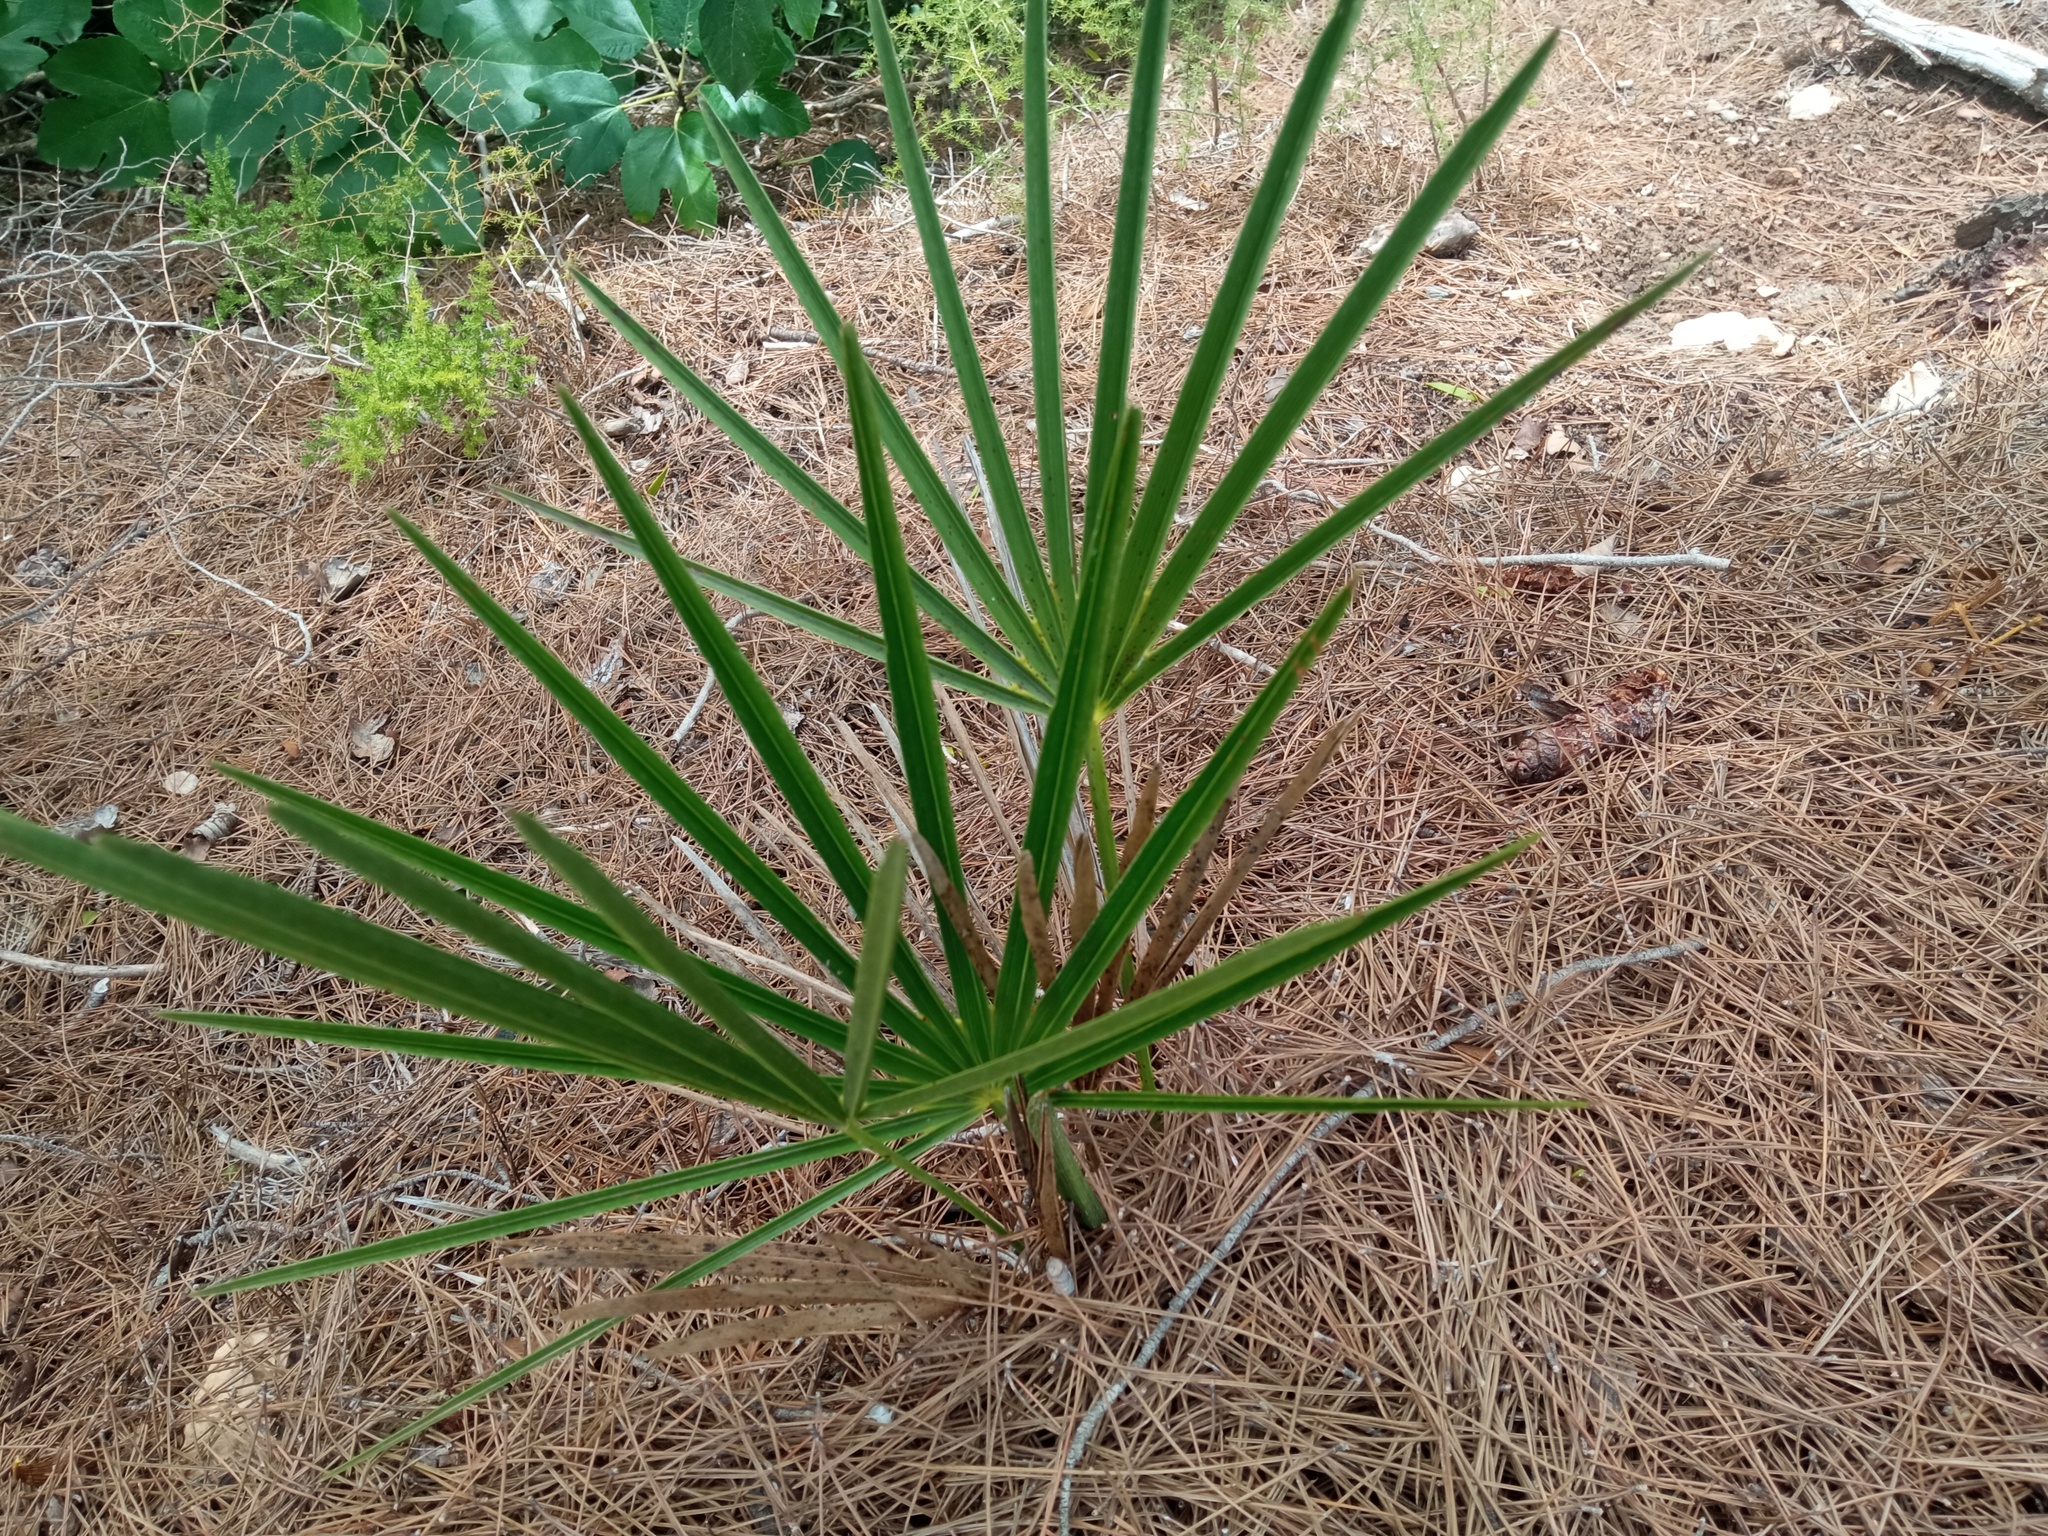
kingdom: Plantae
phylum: Tracheophyta
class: Liliopsida
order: Arecales
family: Arecaceae
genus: Chamaerops
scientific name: Chamaerops humilis
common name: Dwarf fan palm
